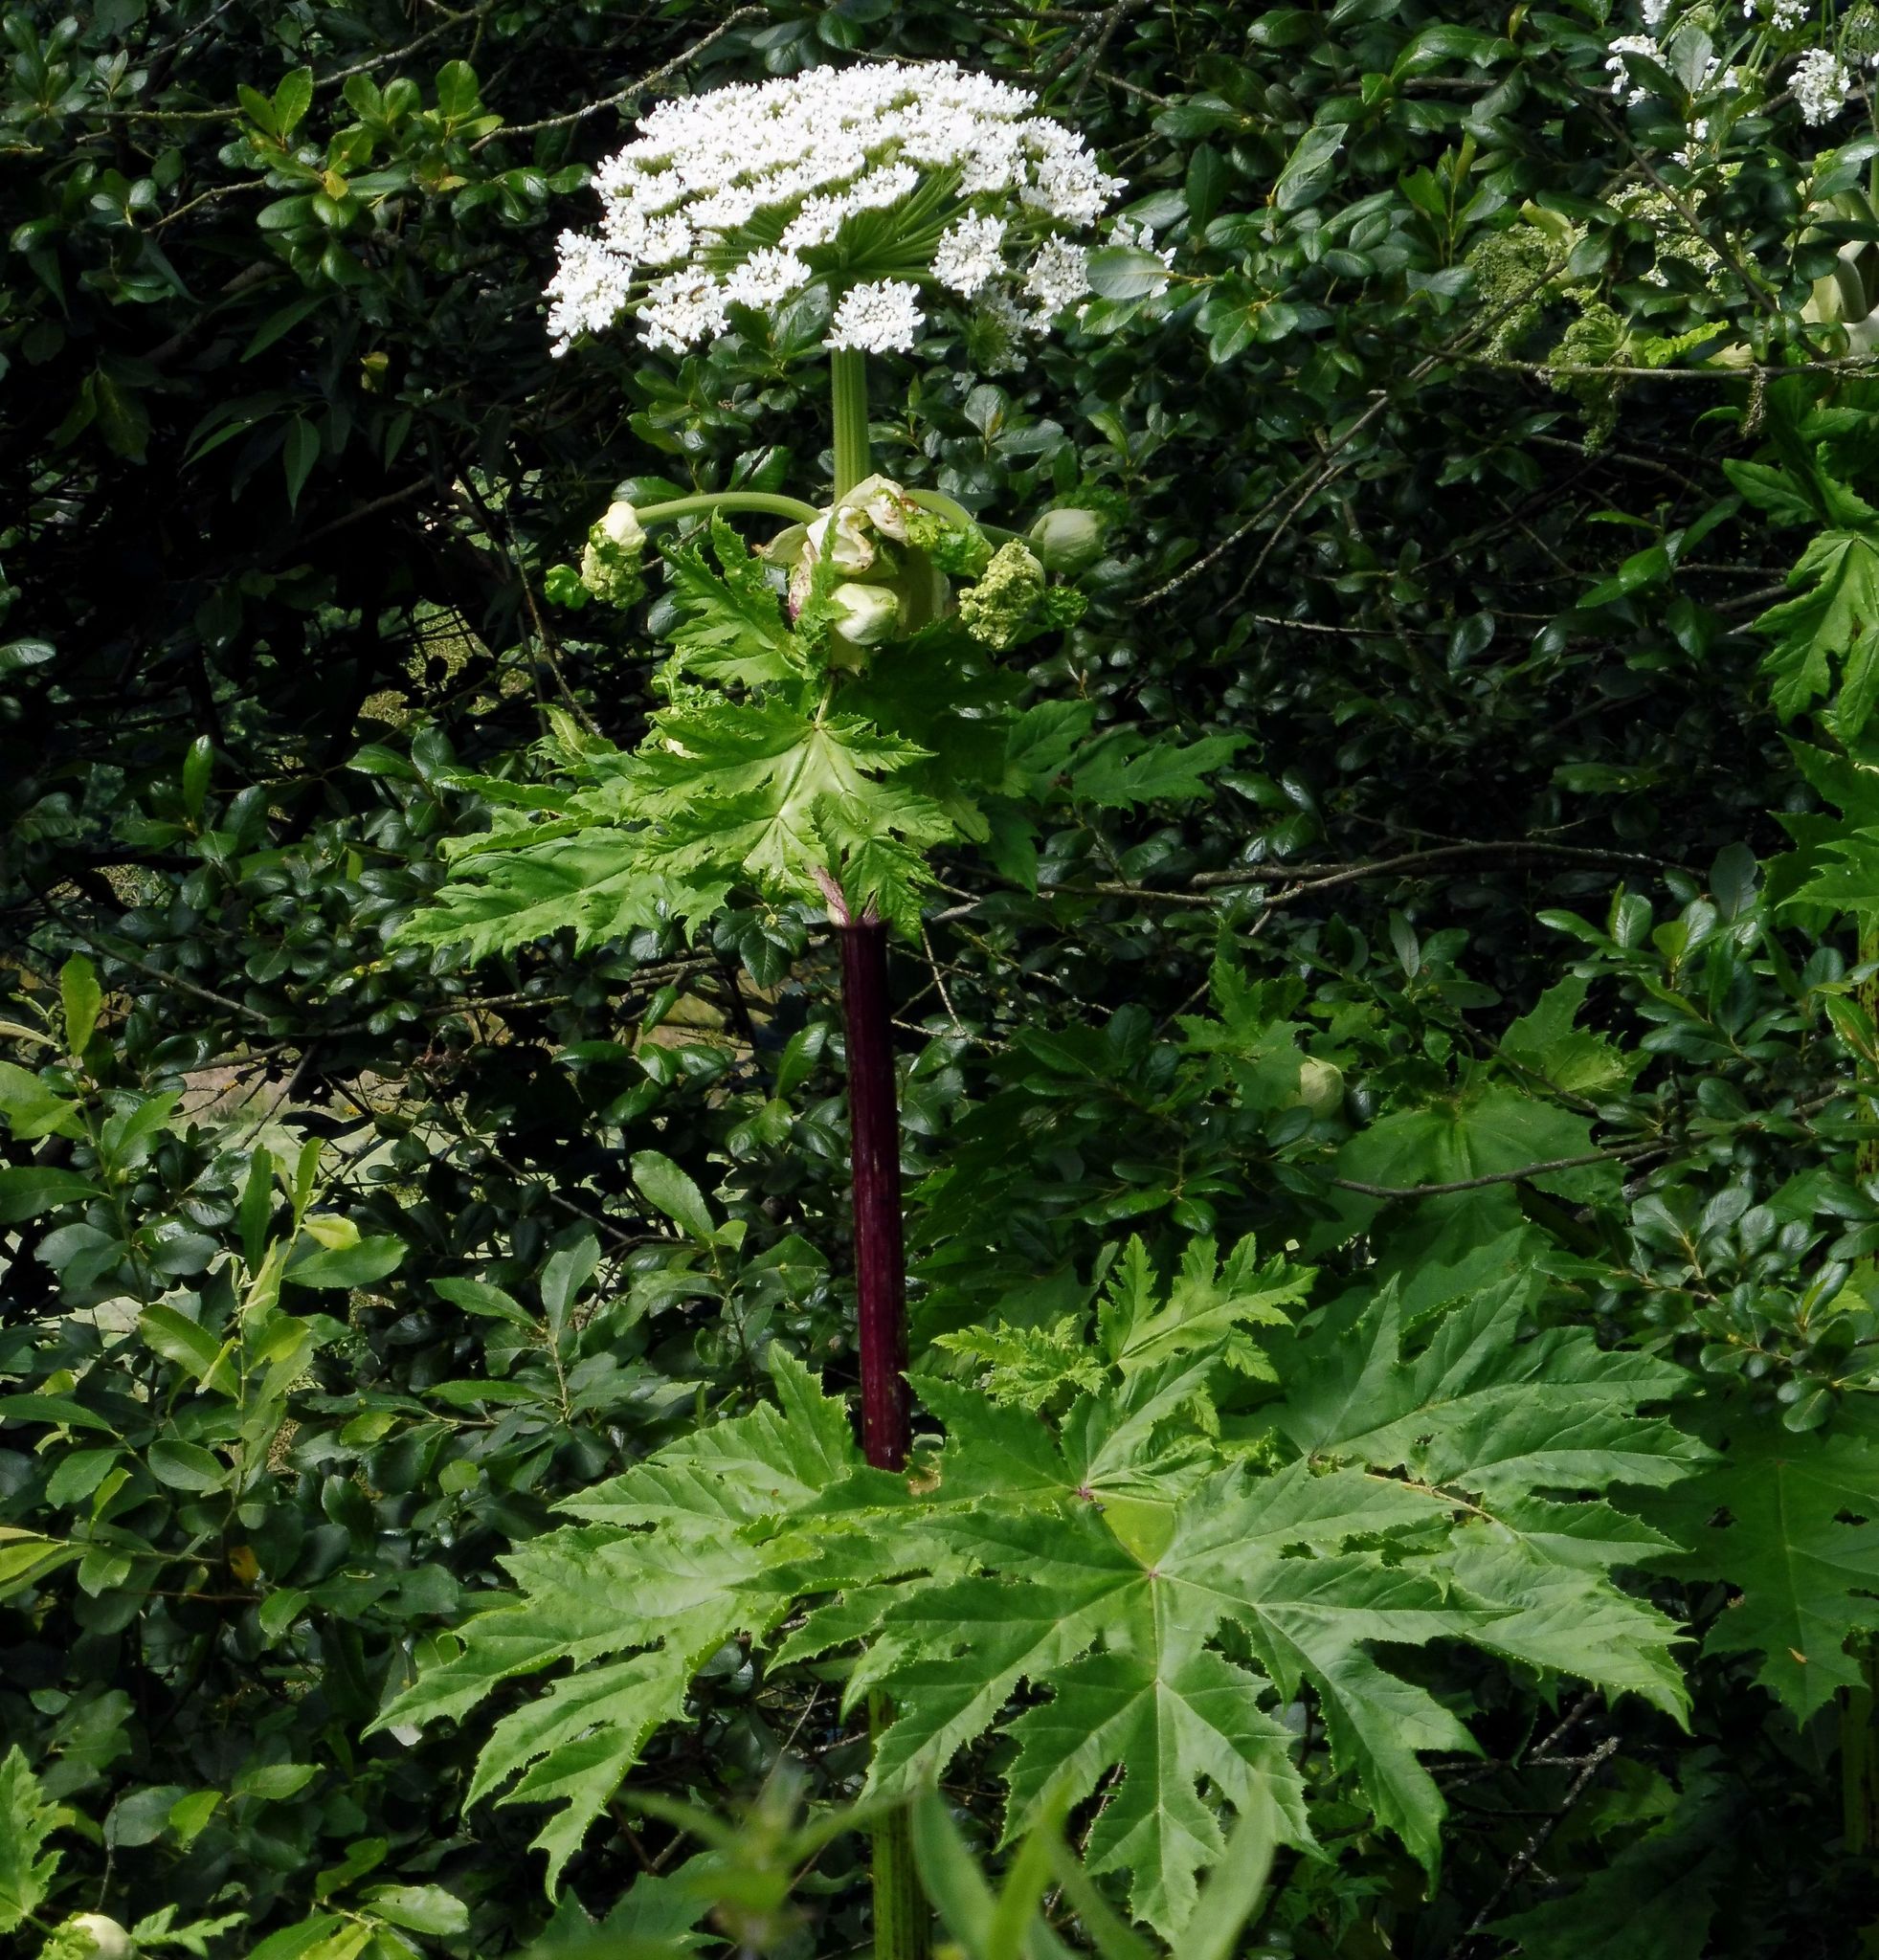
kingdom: Plantae
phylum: Tracheophyta
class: Magnoliopsida
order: Apiales
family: Apiaceae
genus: Heracleum
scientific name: Heracleum mantegazzianum
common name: Giant hogweed
